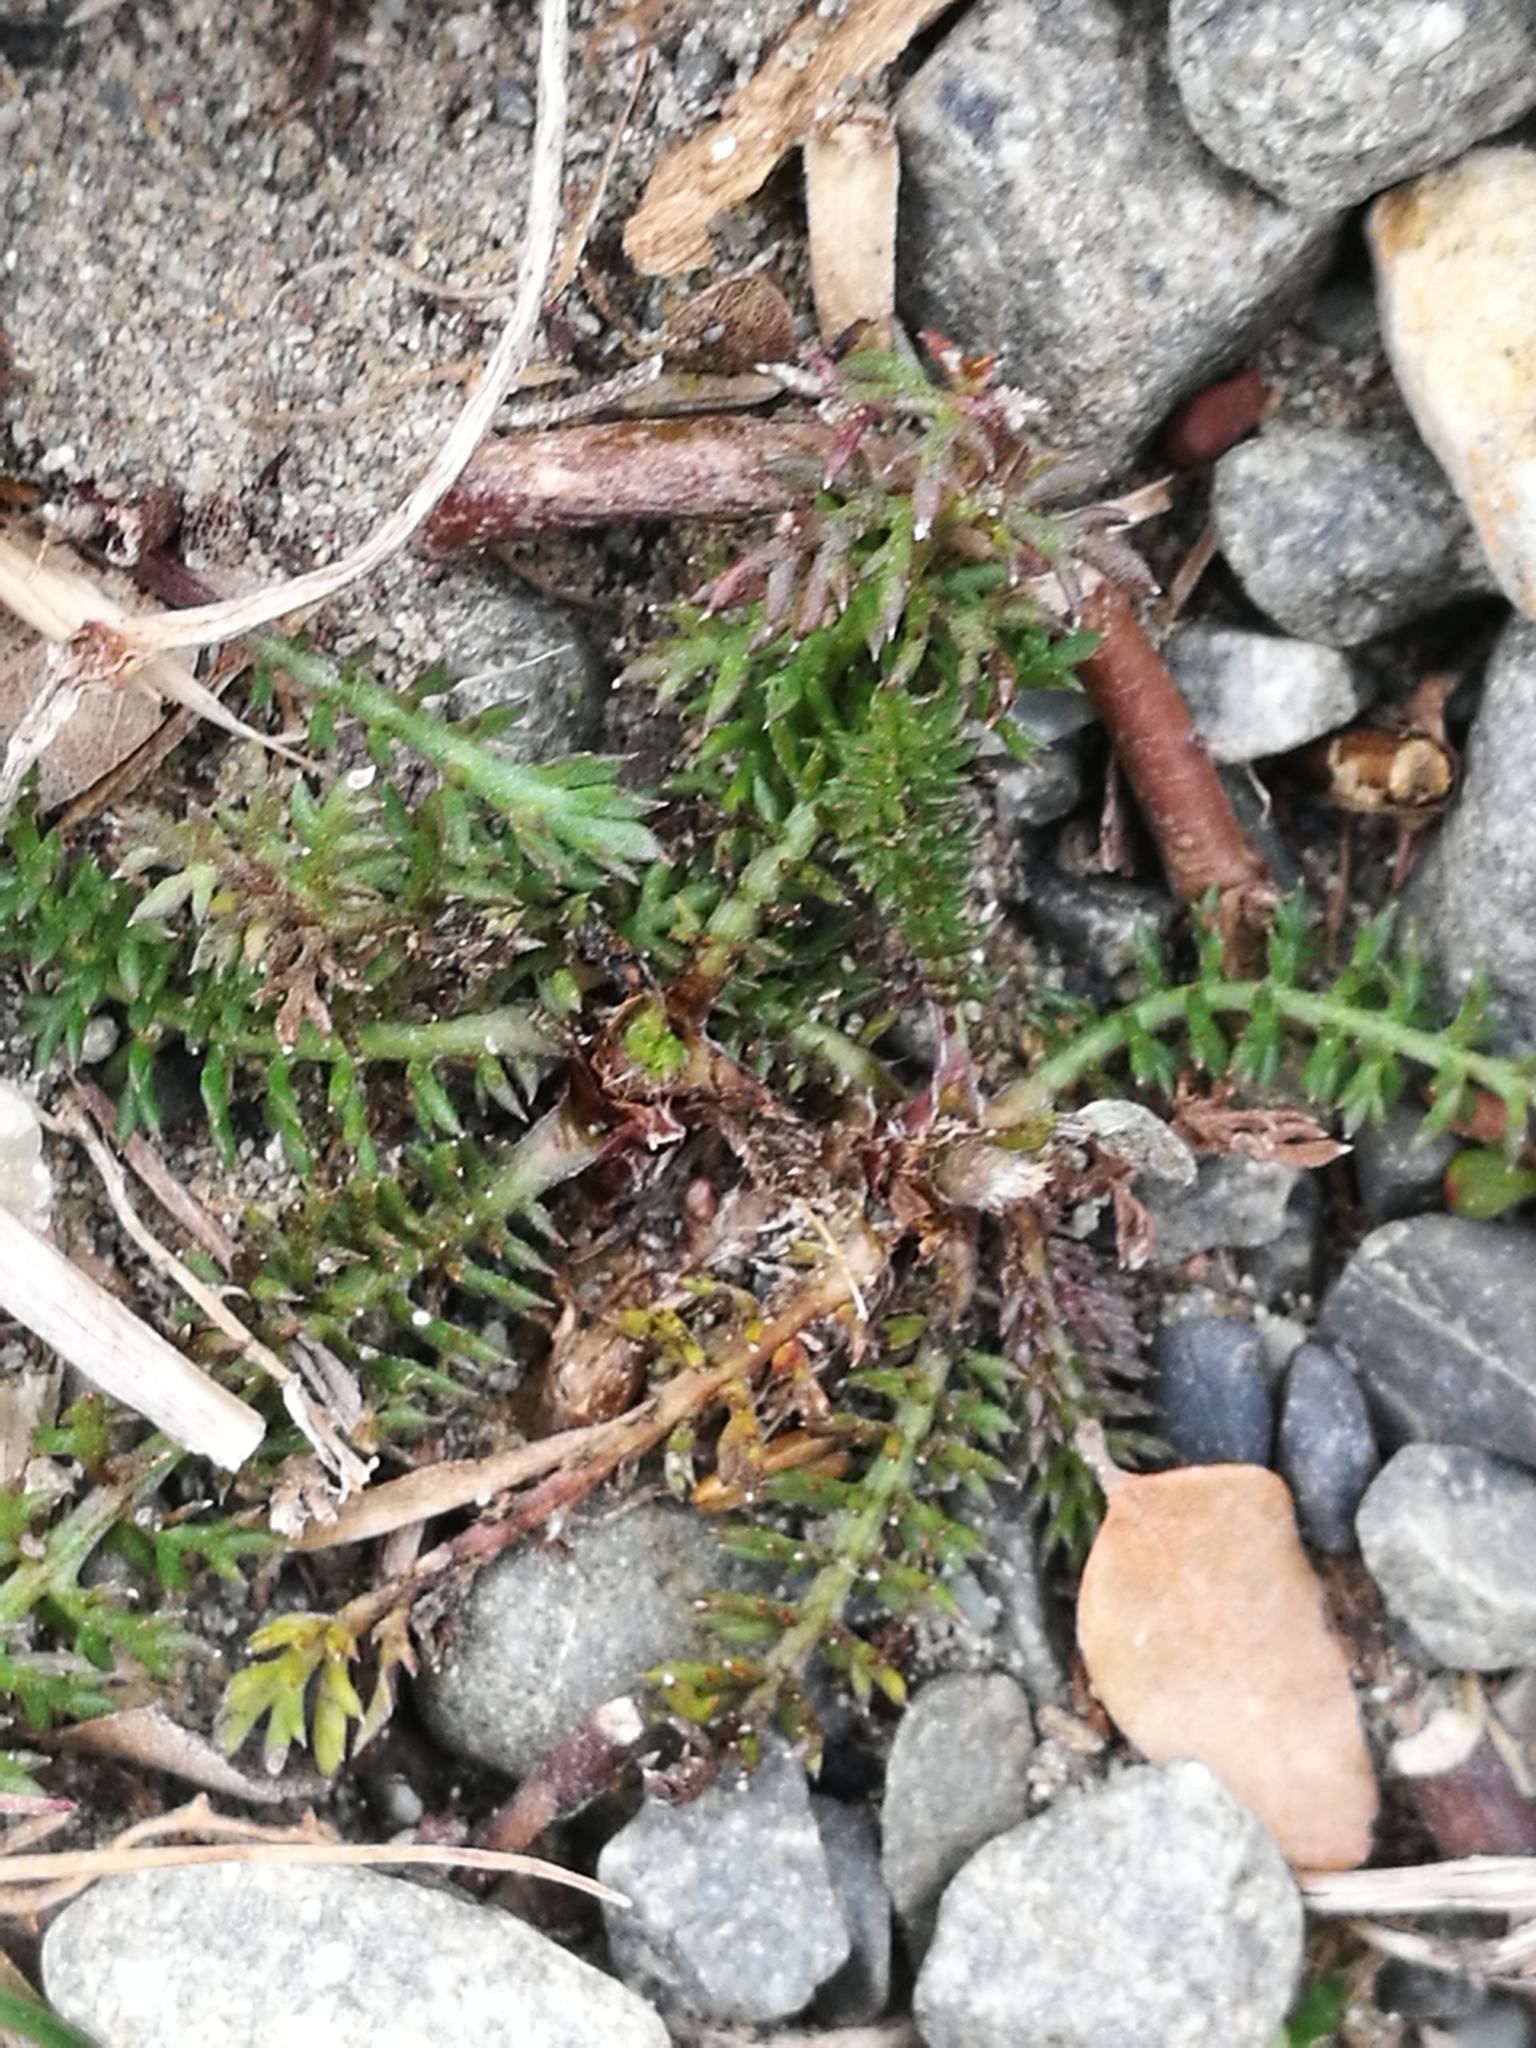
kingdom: Plantae
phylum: Tracheophyta
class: Magnoliopsida
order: Asterales
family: Asteraceae
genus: Achillea
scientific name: Achillea millefolium
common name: Yarrow
